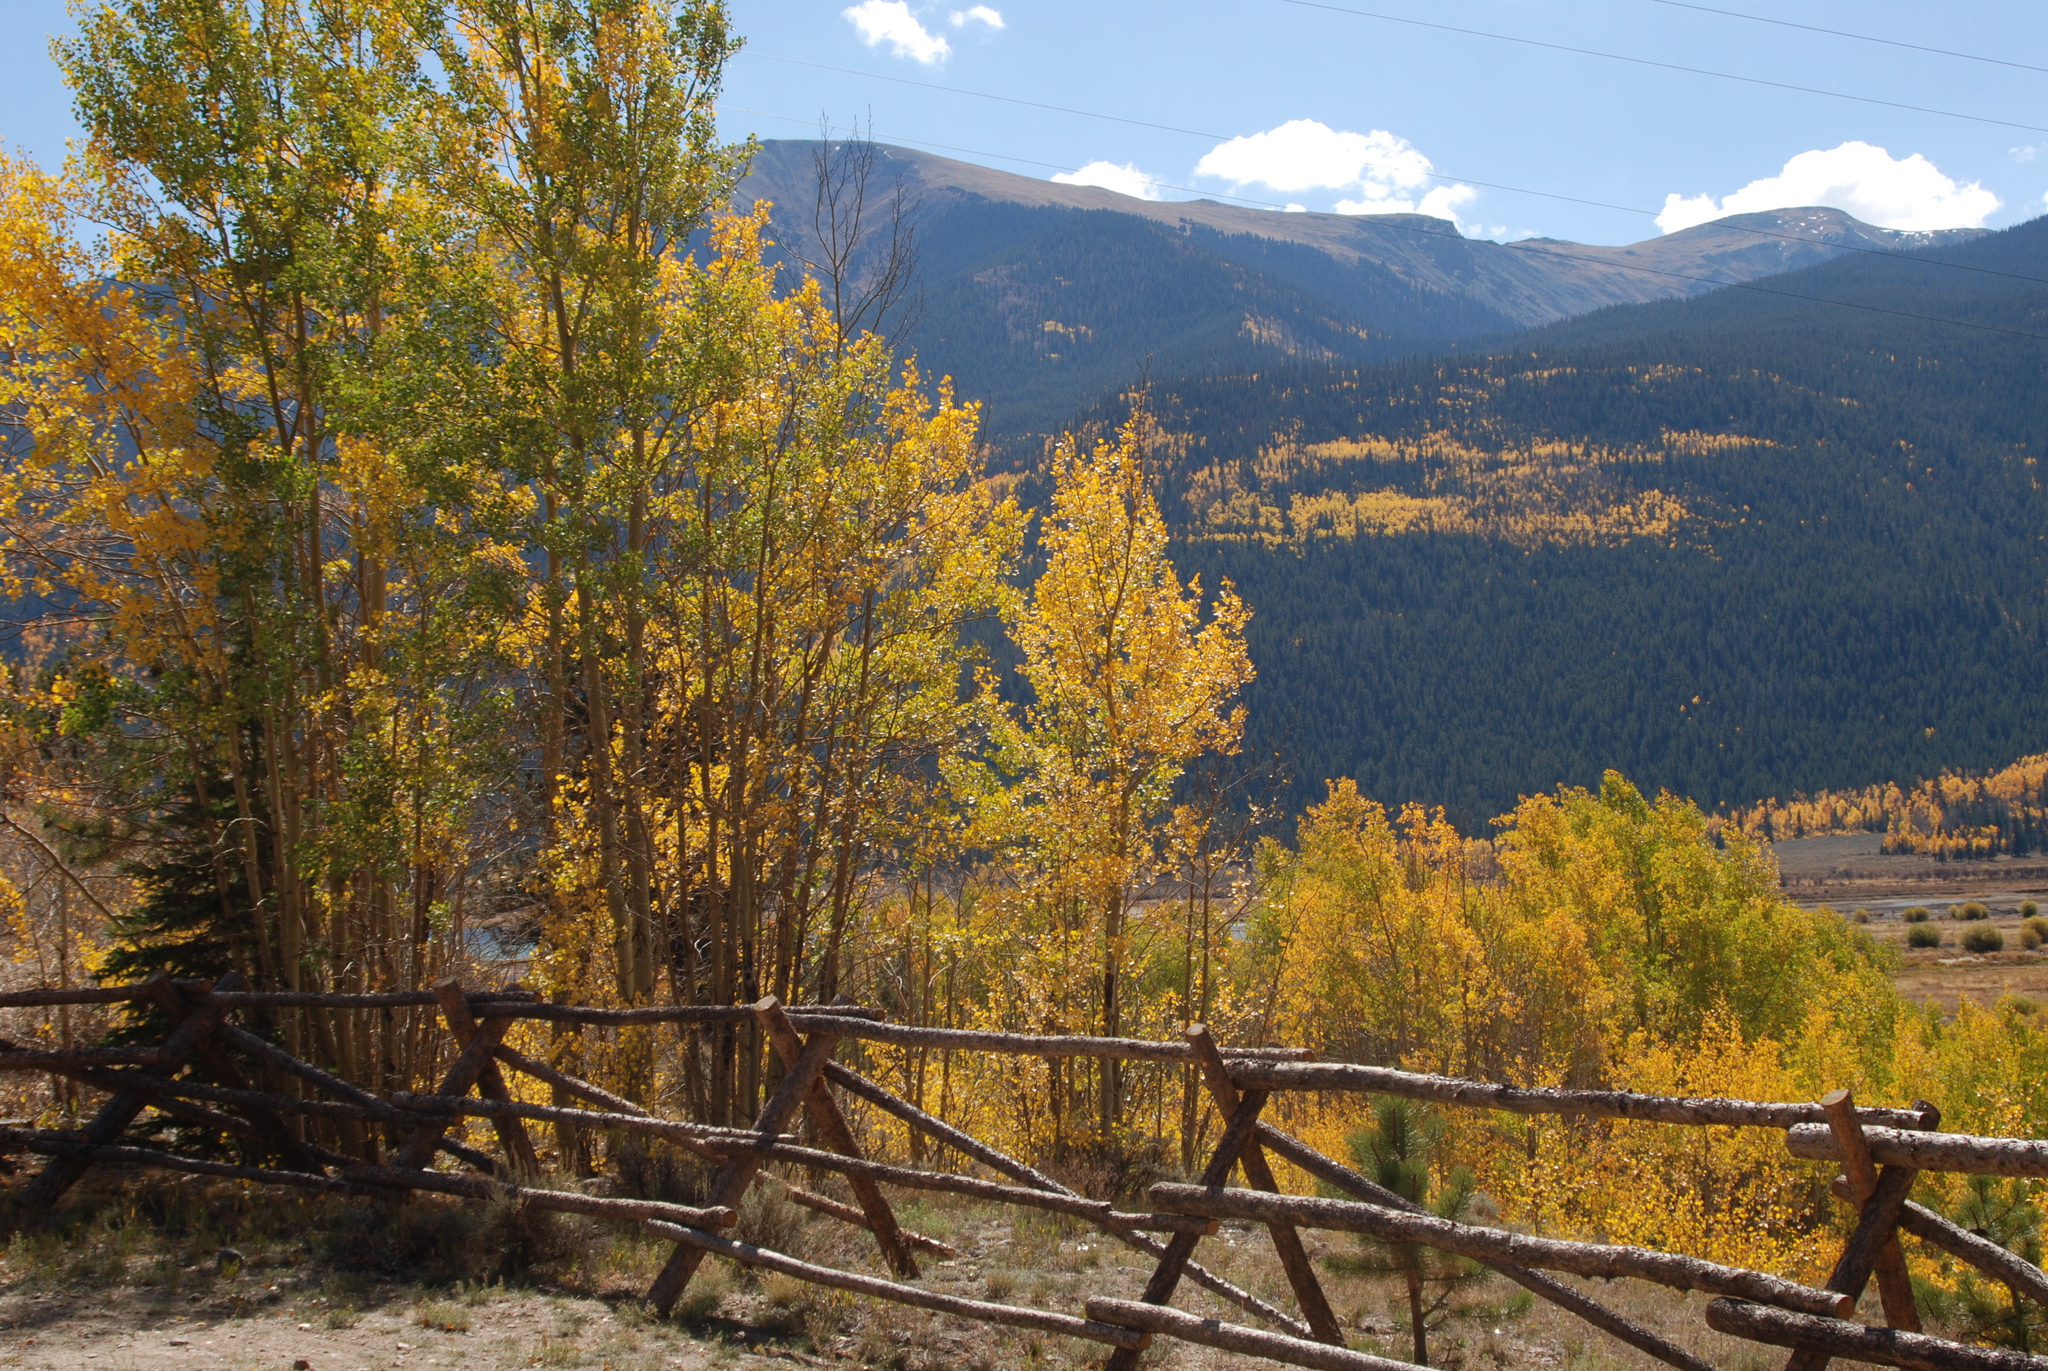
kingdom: Plantae
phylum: Tracheophyta
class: Magnoliopsida
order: Malpighiales
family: Salicaceae
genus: Populus
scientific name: Populus tremuloides
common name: Quaking aspen
